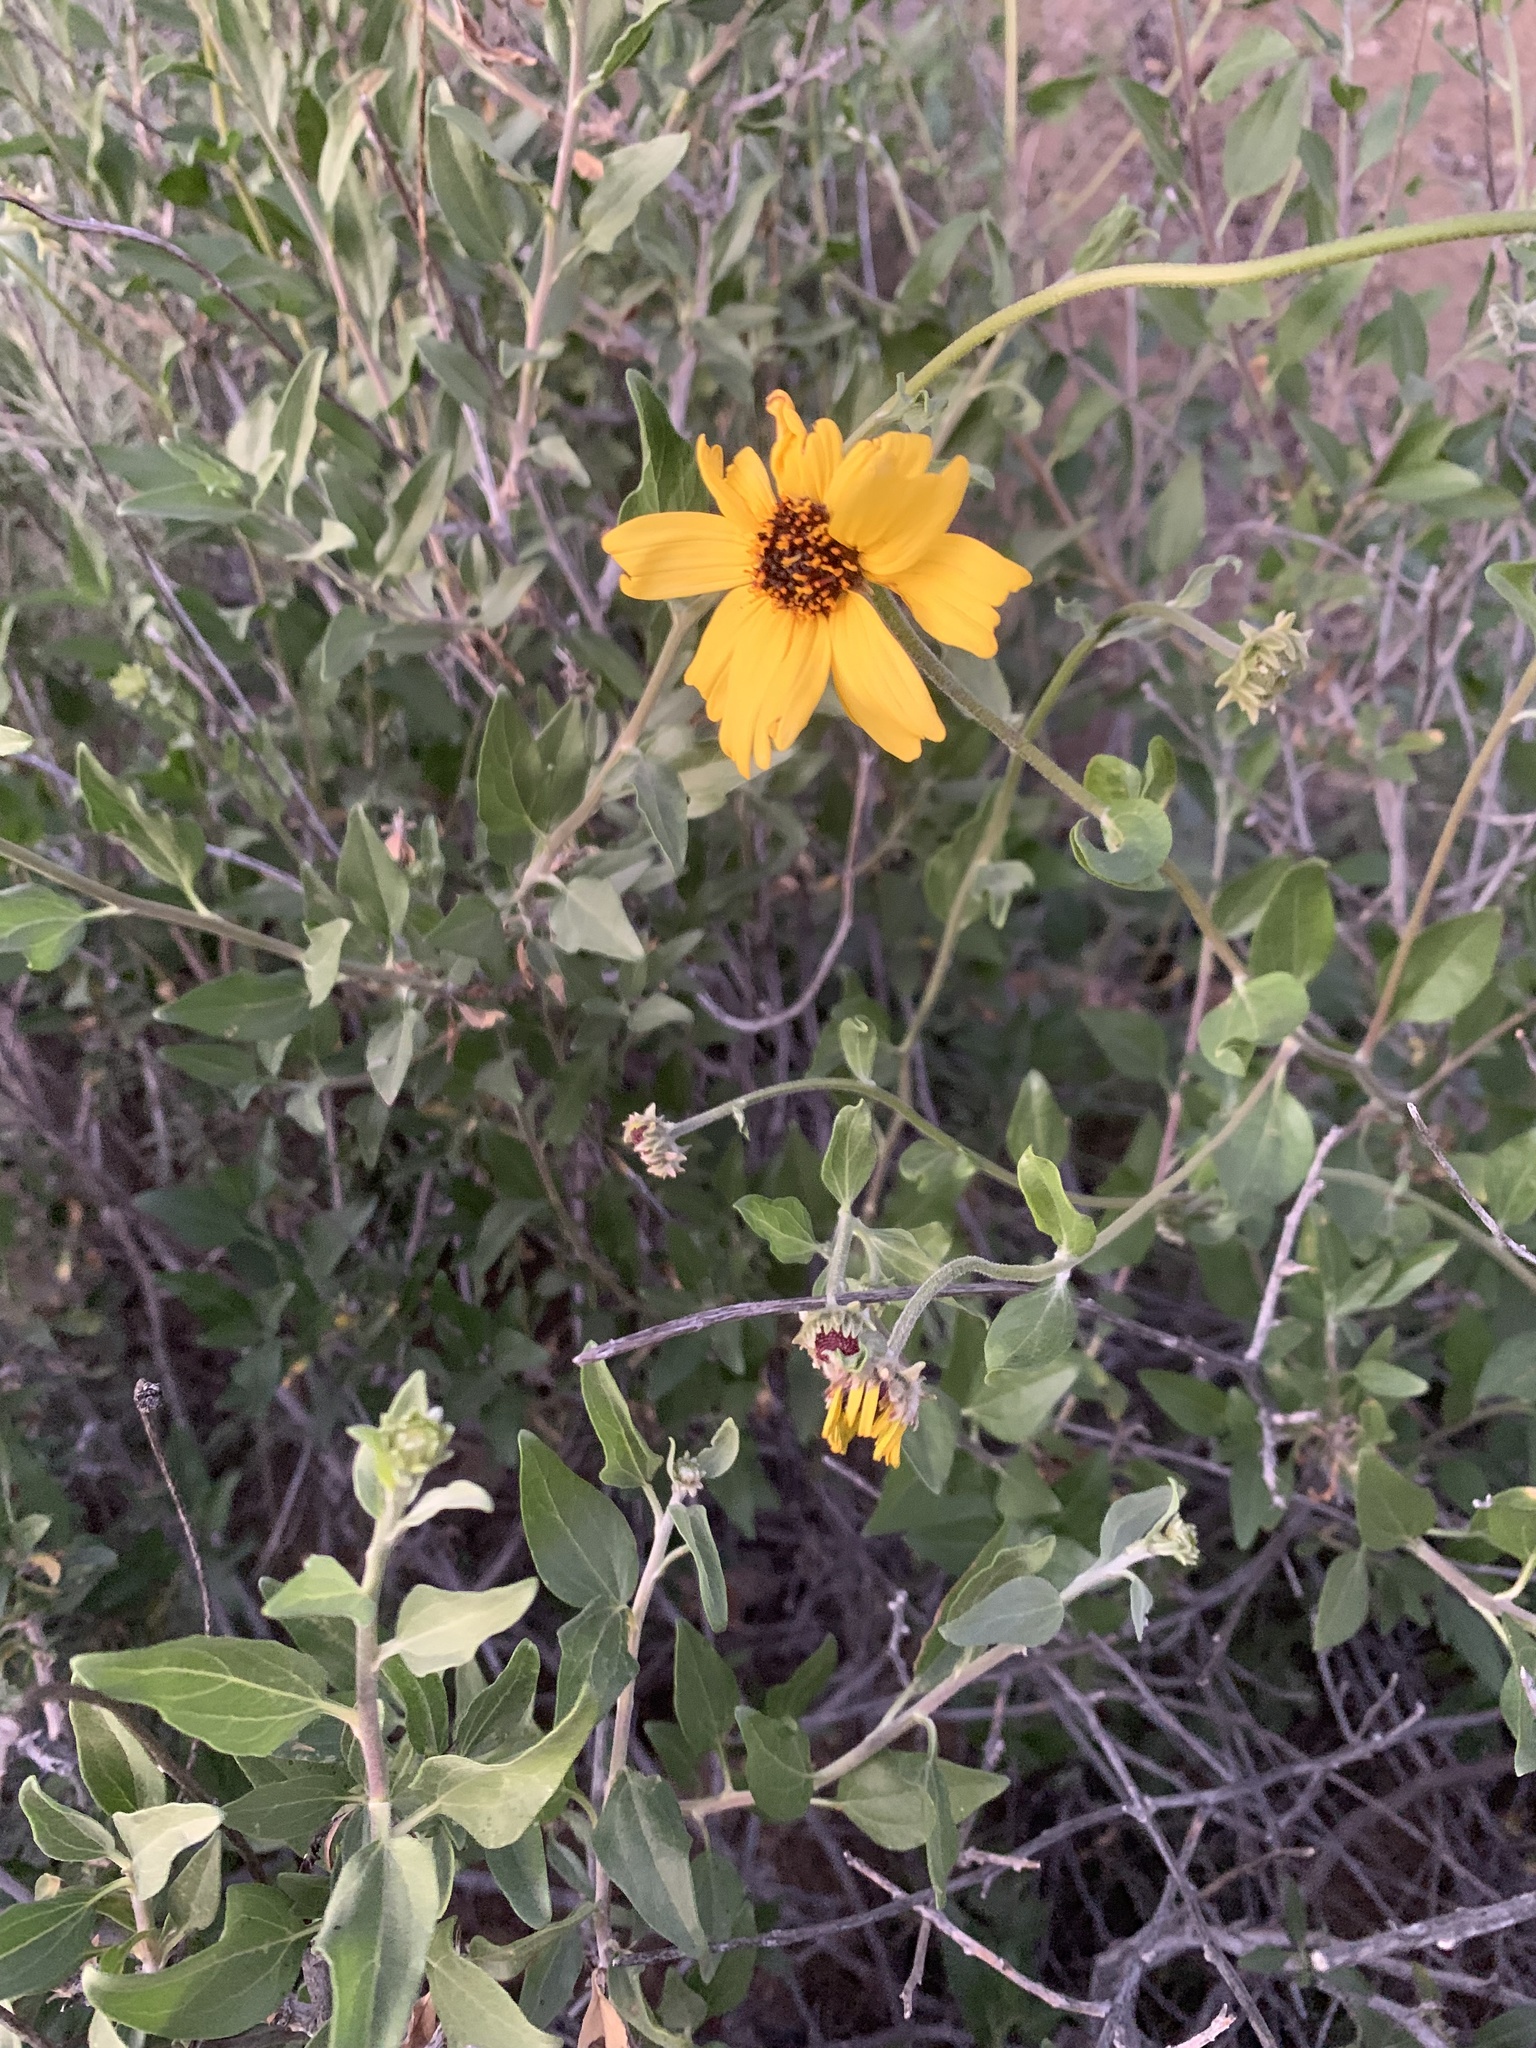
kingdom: Plantae
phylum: Tracheophyta
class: Magnoliopsida
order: Asterales
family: Asteraceae
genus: Encelia
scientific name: Encelia californica
